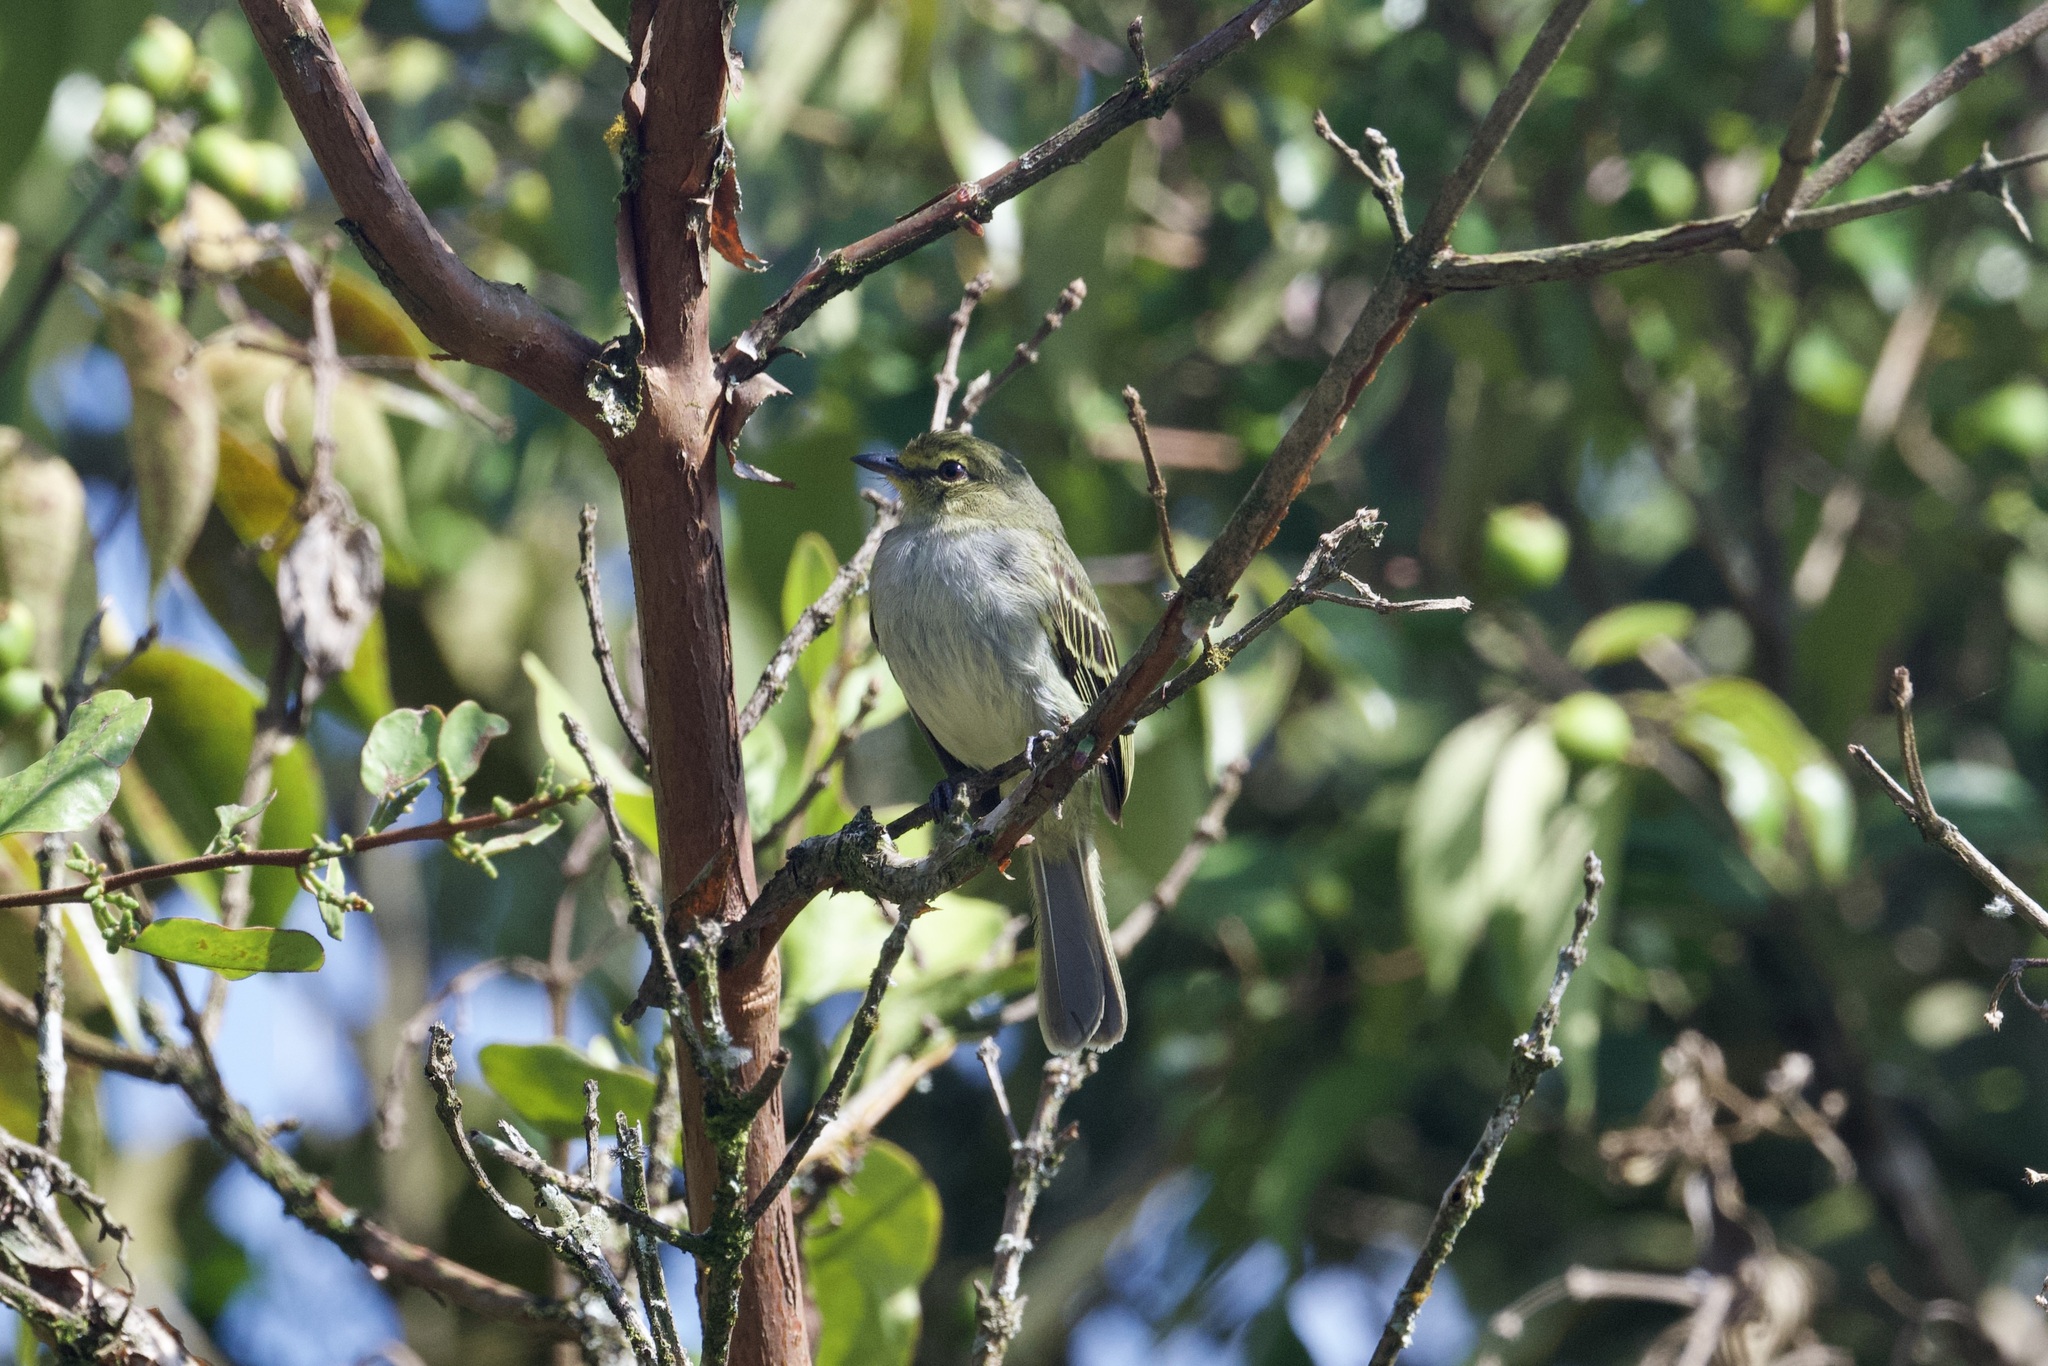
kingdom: Animalia
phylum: Chordata
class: Aves
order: Passeriformes
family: Tyrannidae
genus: Zimmerius
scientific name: Zimmerius chrysops
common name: Golden-faced tyrannulet
